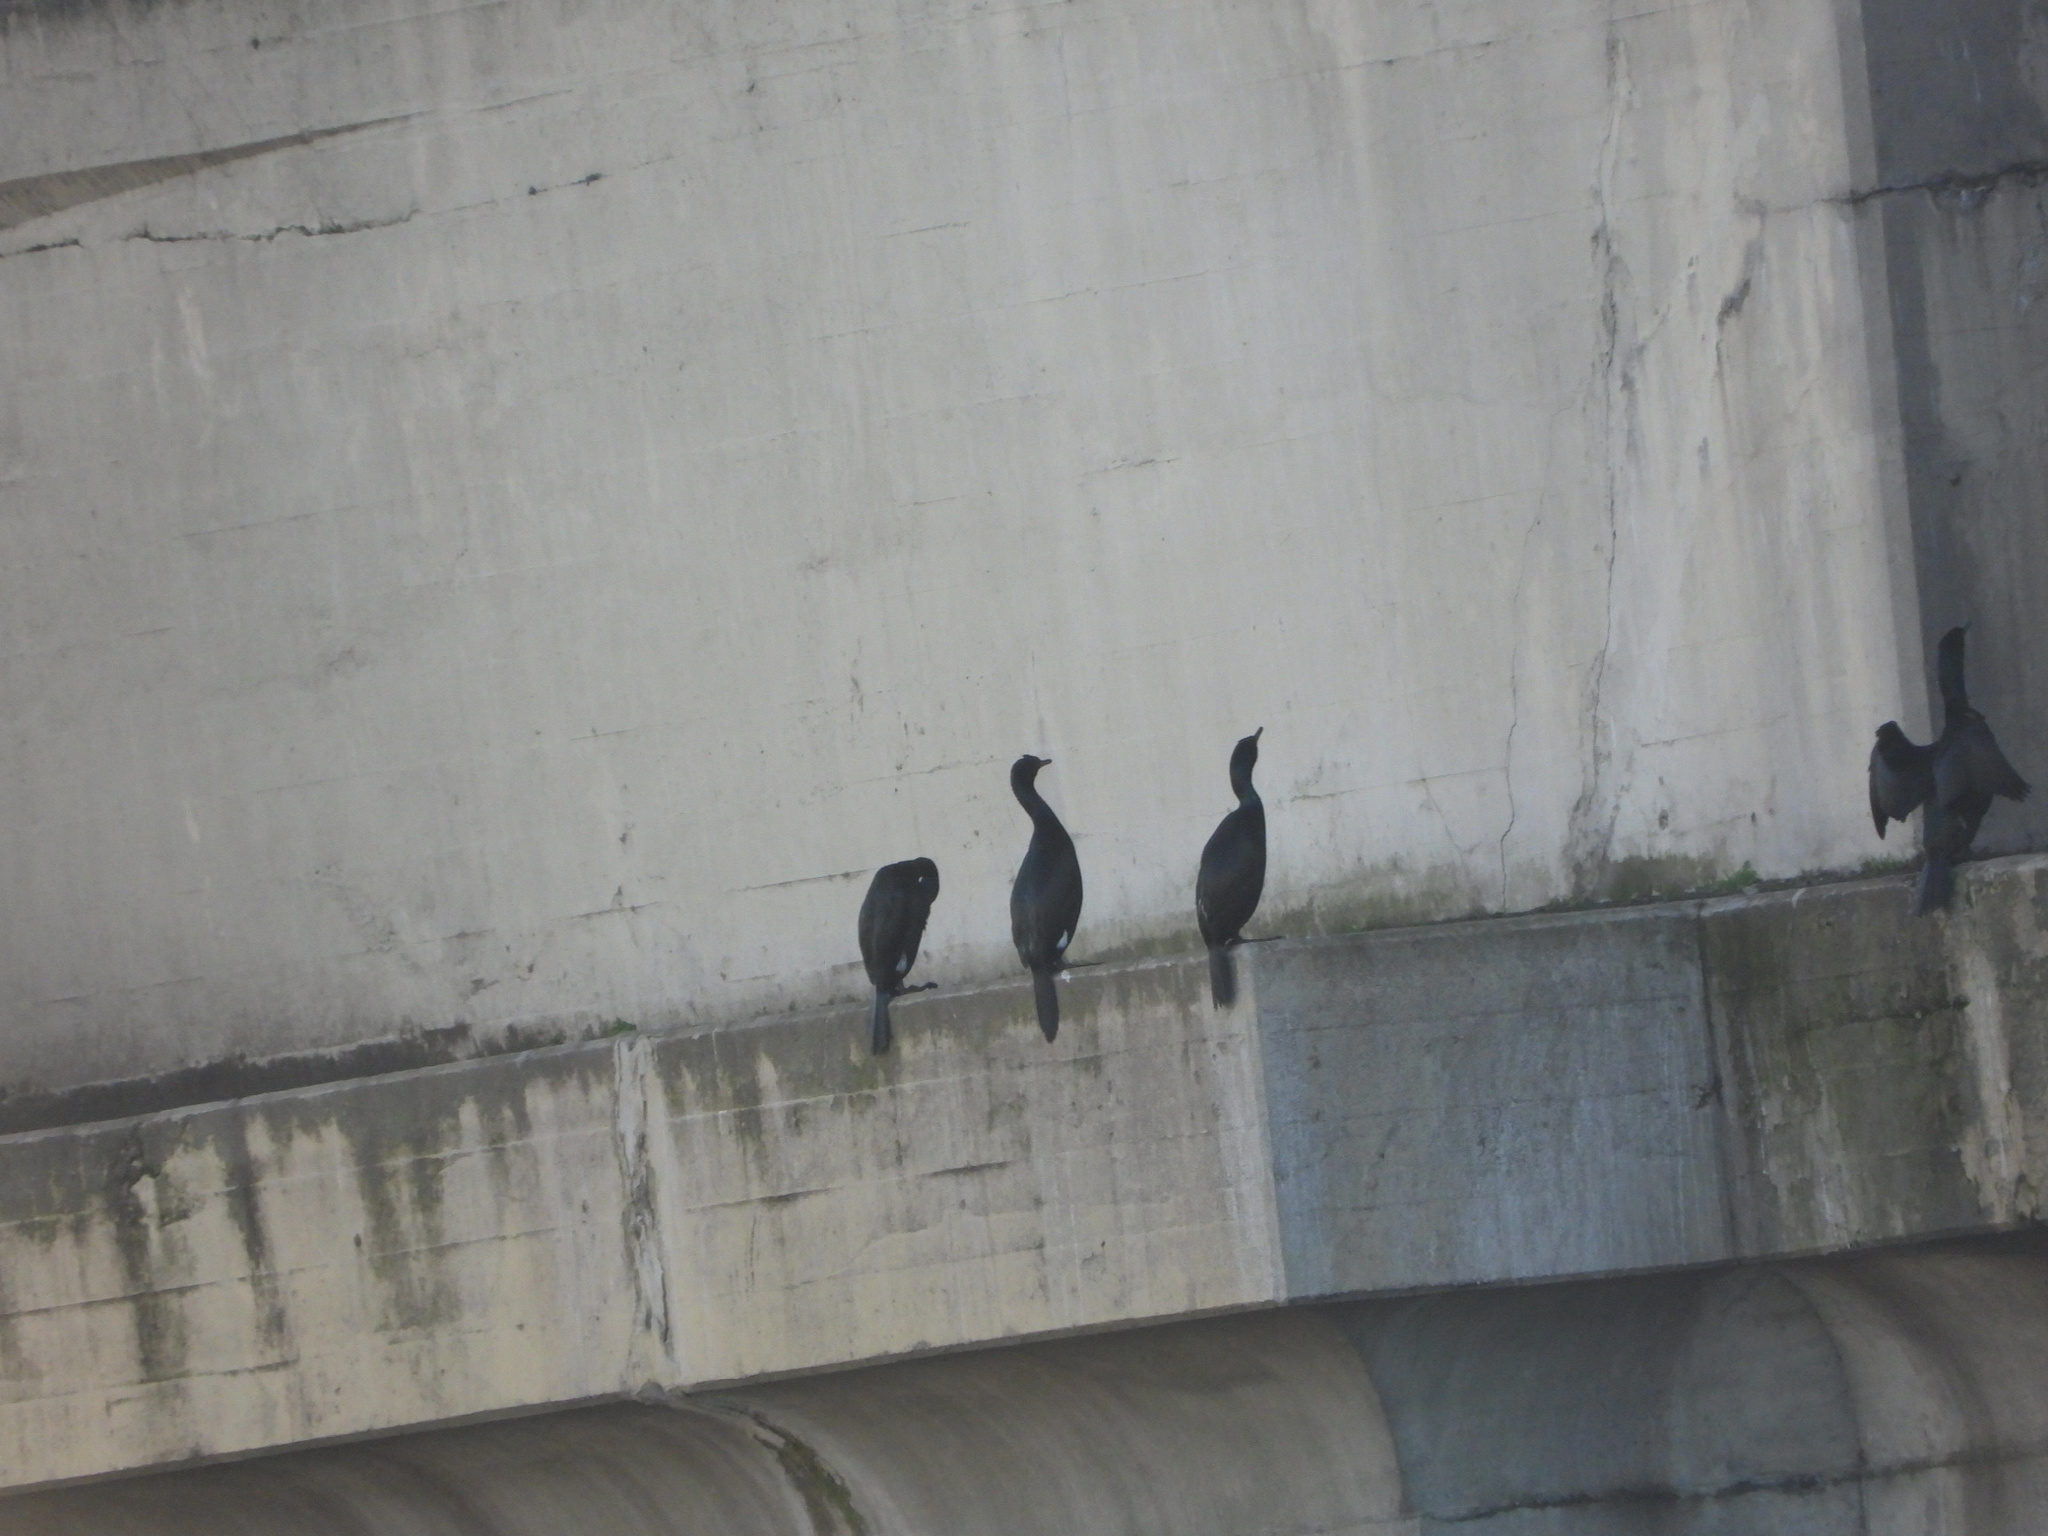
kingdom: Animalia
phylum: Chordata
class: Aves
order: Suliformes
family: Phalacrocoracidae
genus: Phalacrocorax
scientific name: Phalacrocorax pelagicus
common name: Pelagic cormorant
